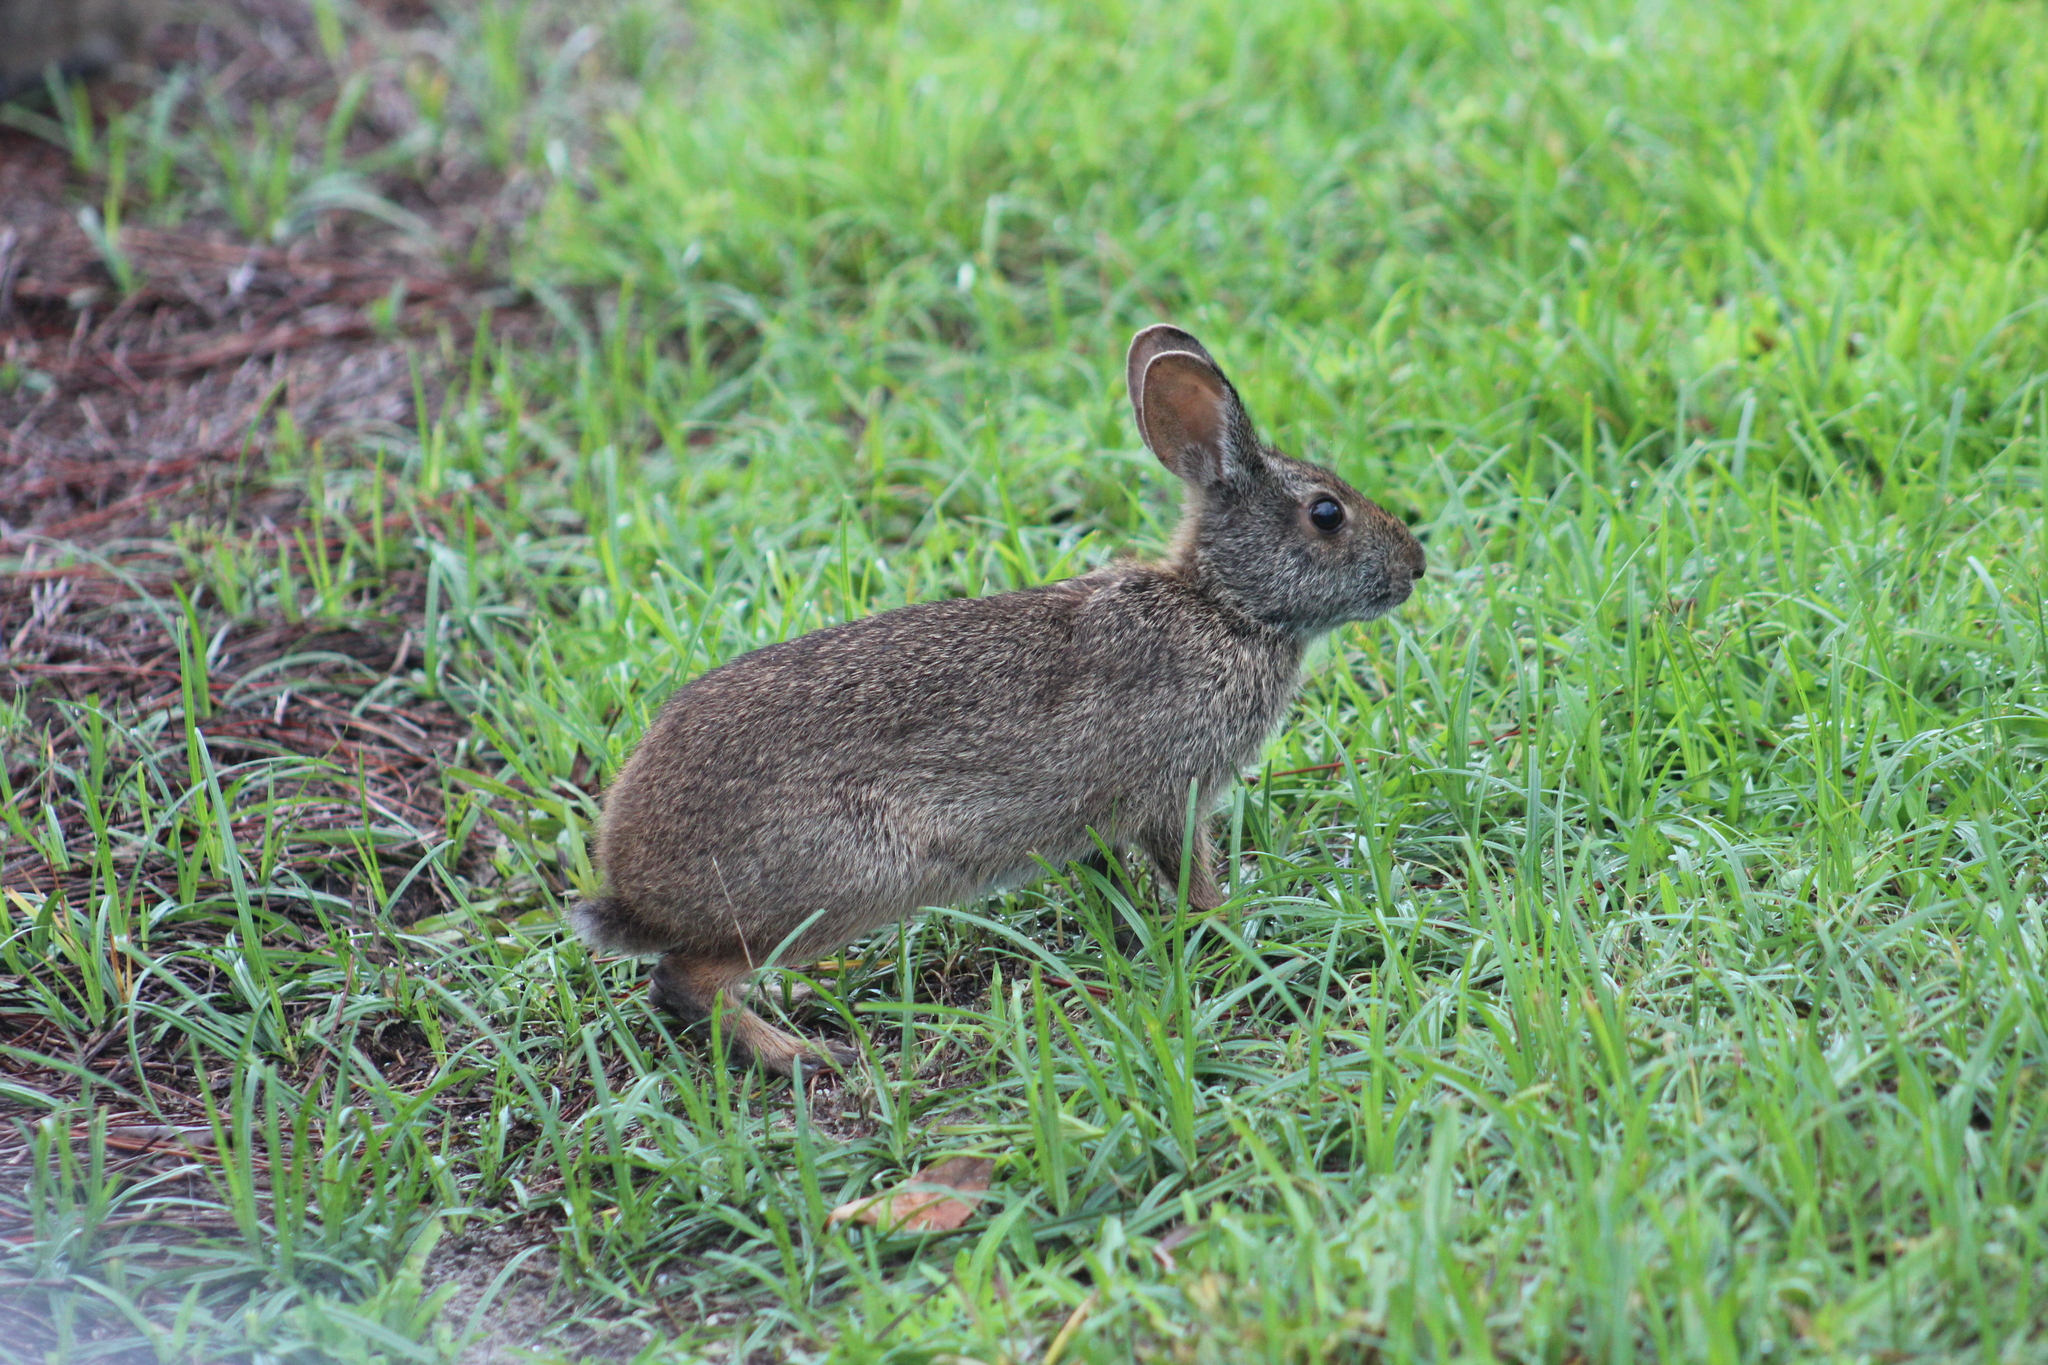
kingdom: Animalia
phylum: Chordata
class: Mammalia
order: Lagomorpha
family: Leporidae
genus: Sylvilagus
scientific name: Sylvilagus palustris
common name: Marsh rabbit
